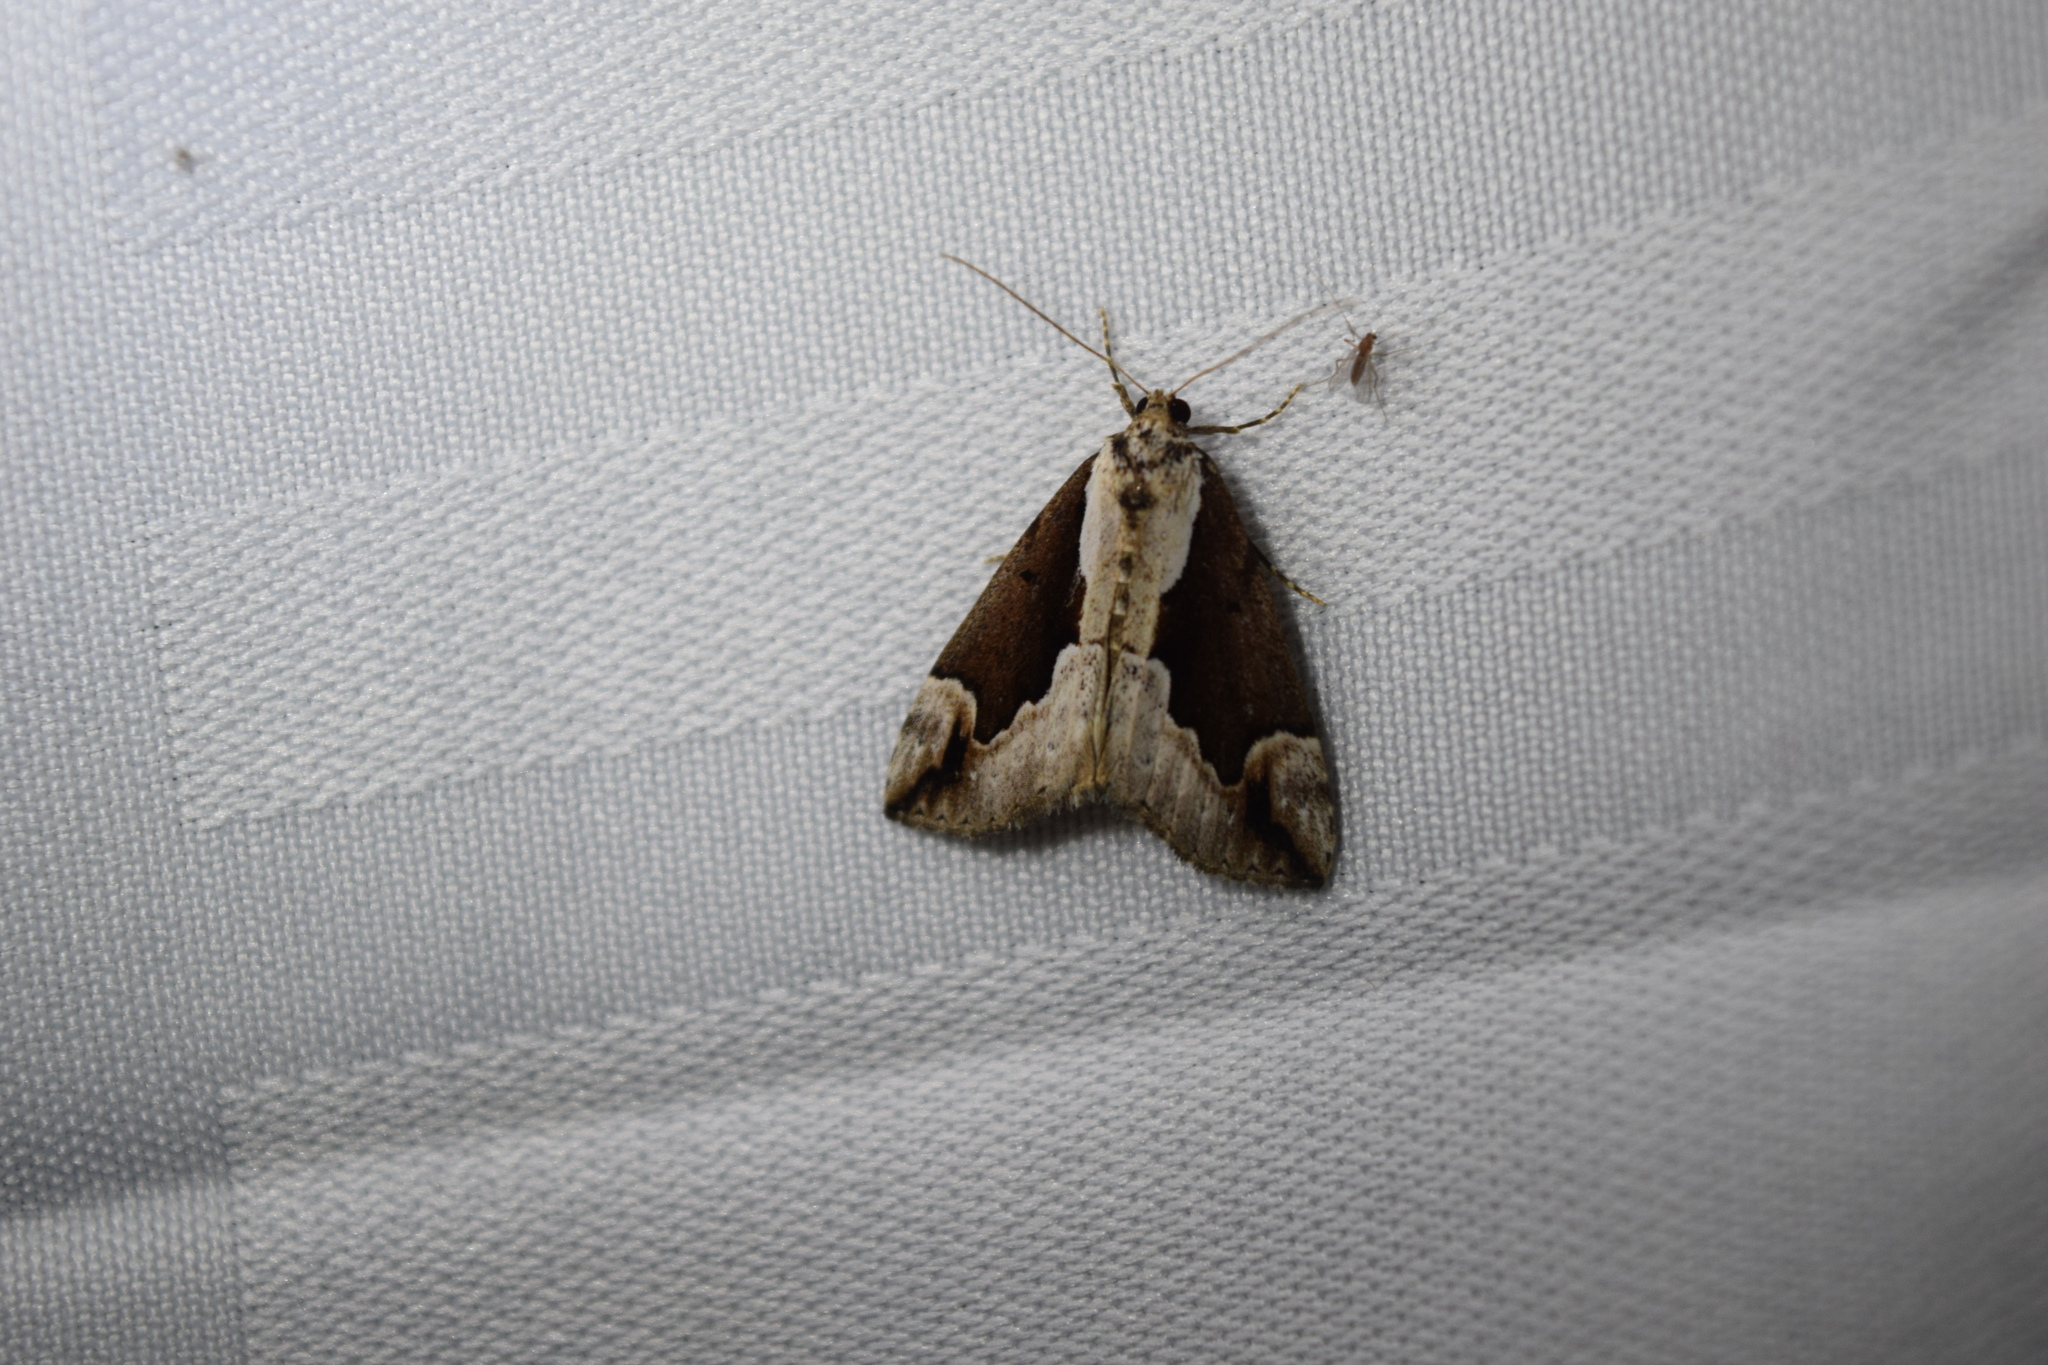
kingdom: Animalia
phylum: Arthropoda
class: Insecta
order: Lepidoptera
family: Erebidae
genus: Hypena
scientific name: Hypena baltimoralis
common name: Baltimore snout
